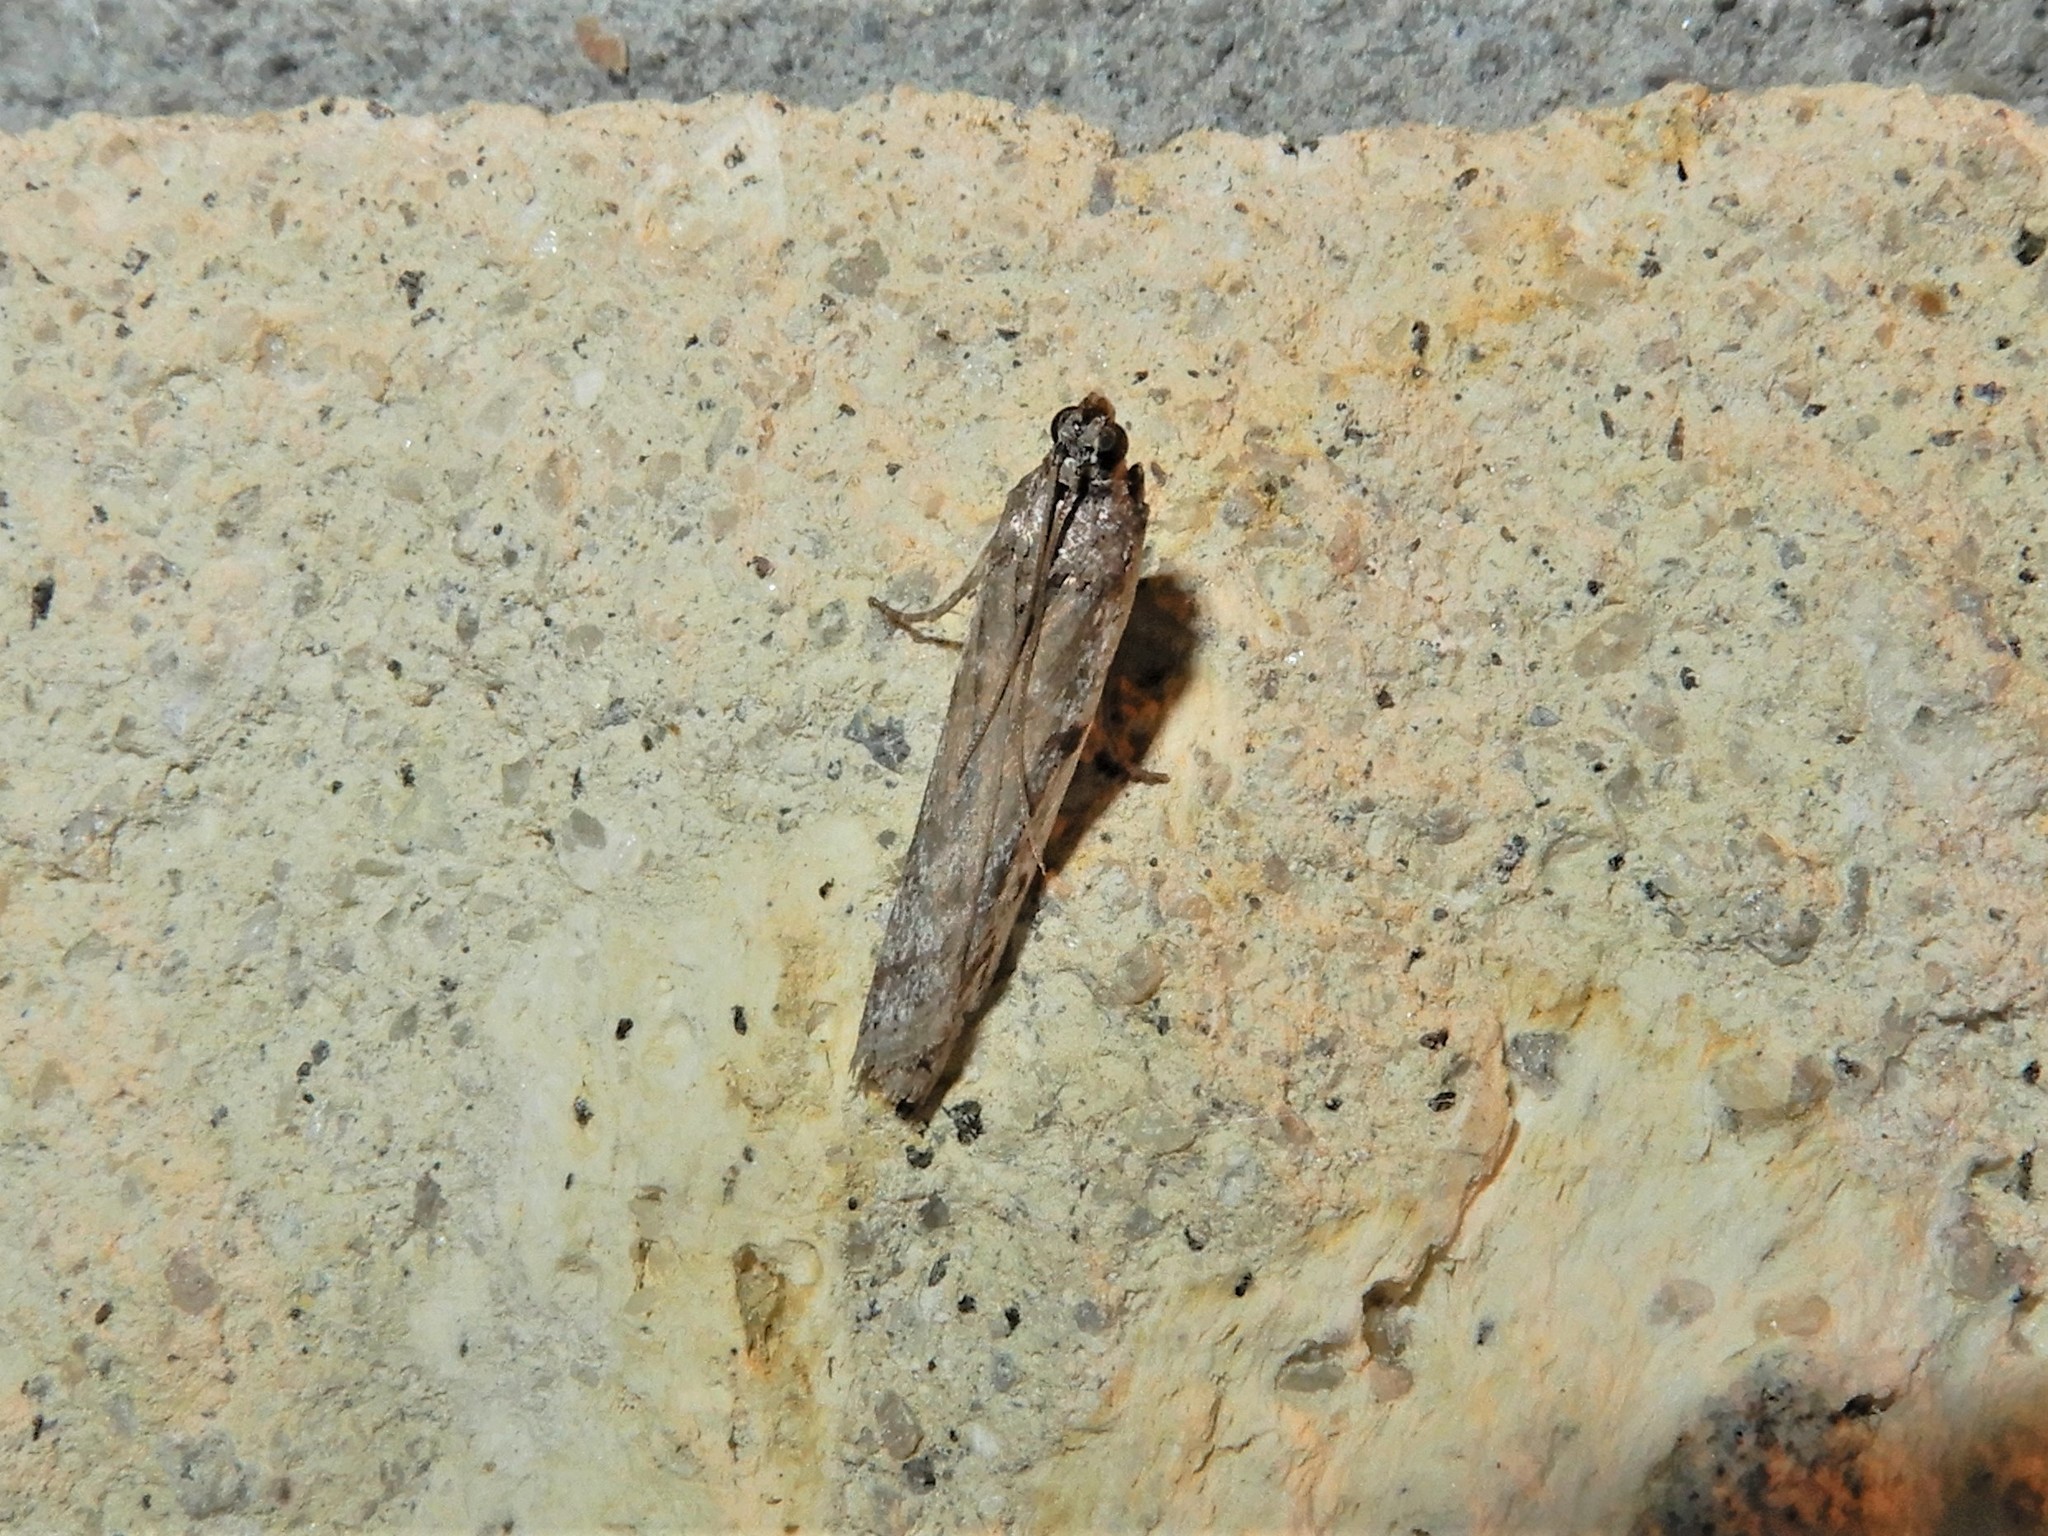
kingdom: Animalia
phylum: Arthropoda
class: Insecta
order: Lepidoptera
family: Pyralidae
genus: Patagoniodes
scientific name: Patagoniodes farinaria
